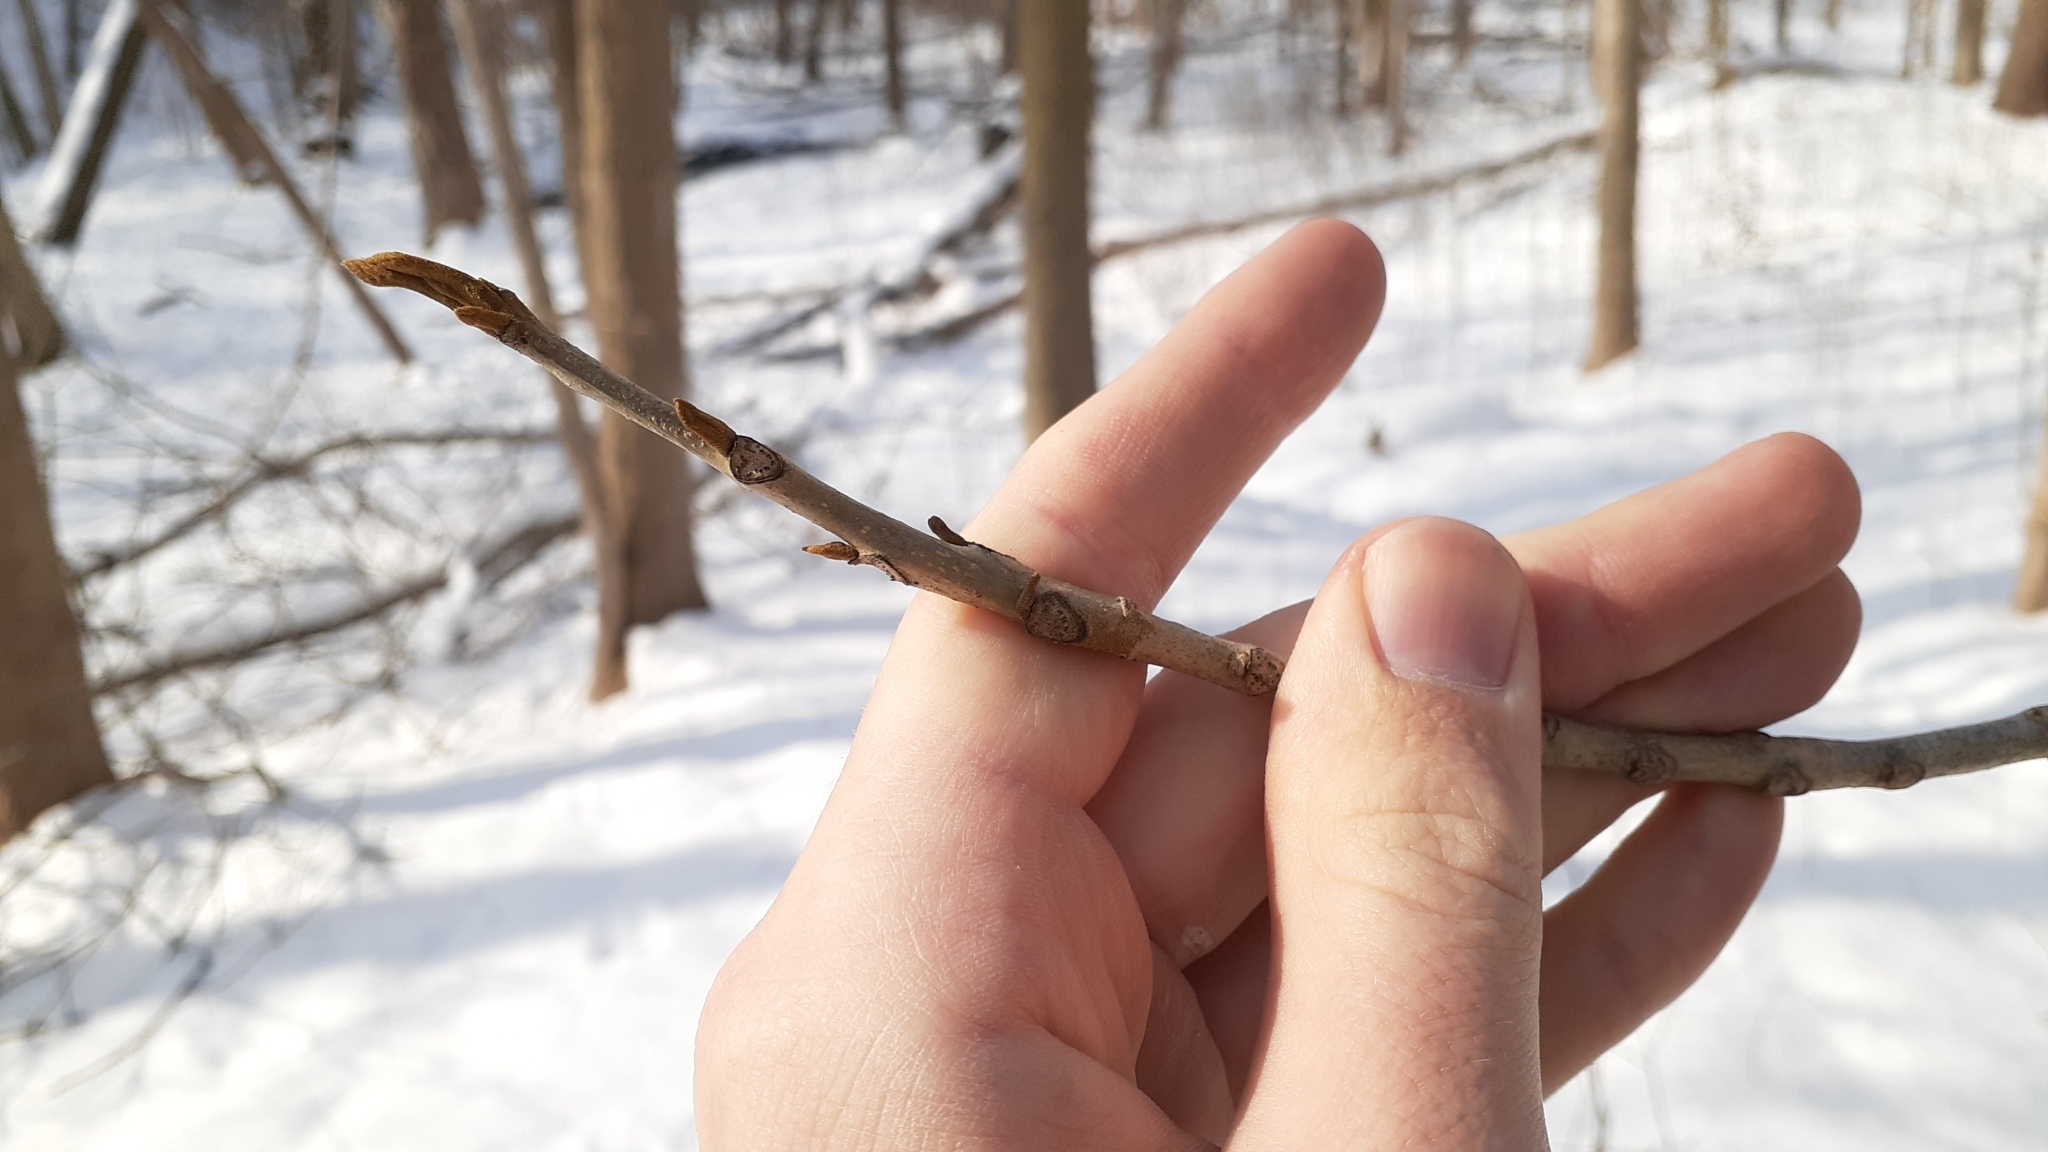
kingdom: Plantae
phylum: Tracheophyta
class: Magnoliopsida
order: Fagales
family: Juglandaceae
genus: Carya
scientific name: Carya cordiformis
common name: Bitternut hickory
